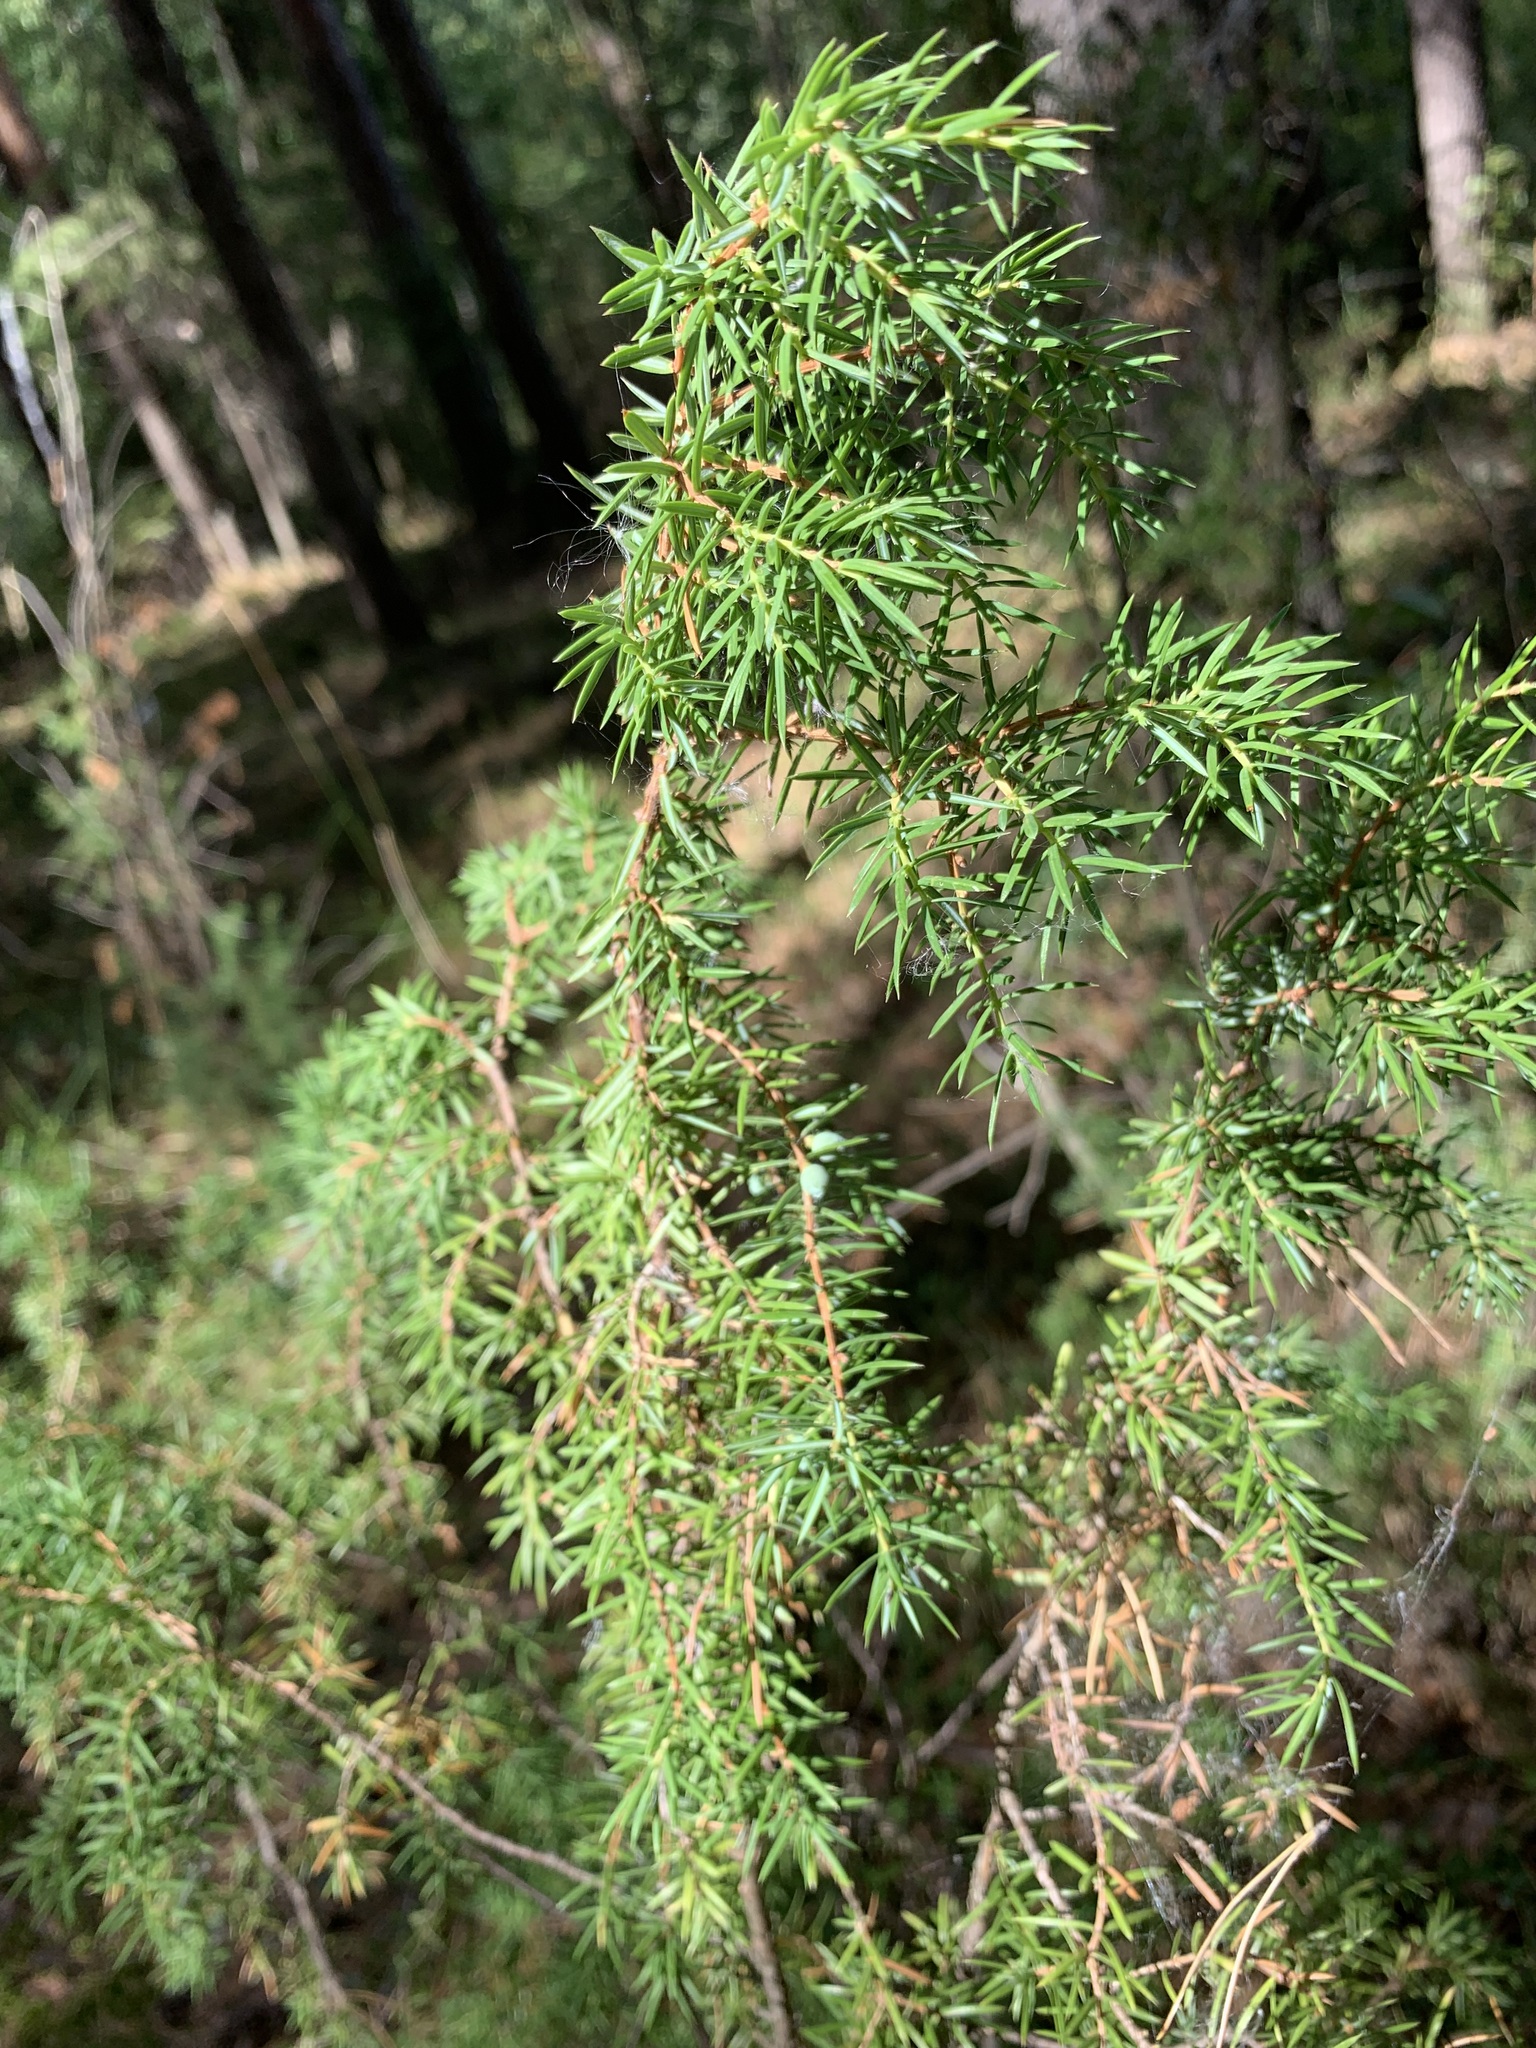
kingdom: Plantae
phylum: Tracheophyta
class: Pinopsida
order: Pinales
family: Cupressaceae
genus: Juniperus
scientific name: Juniperus communis
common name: Common juniper
